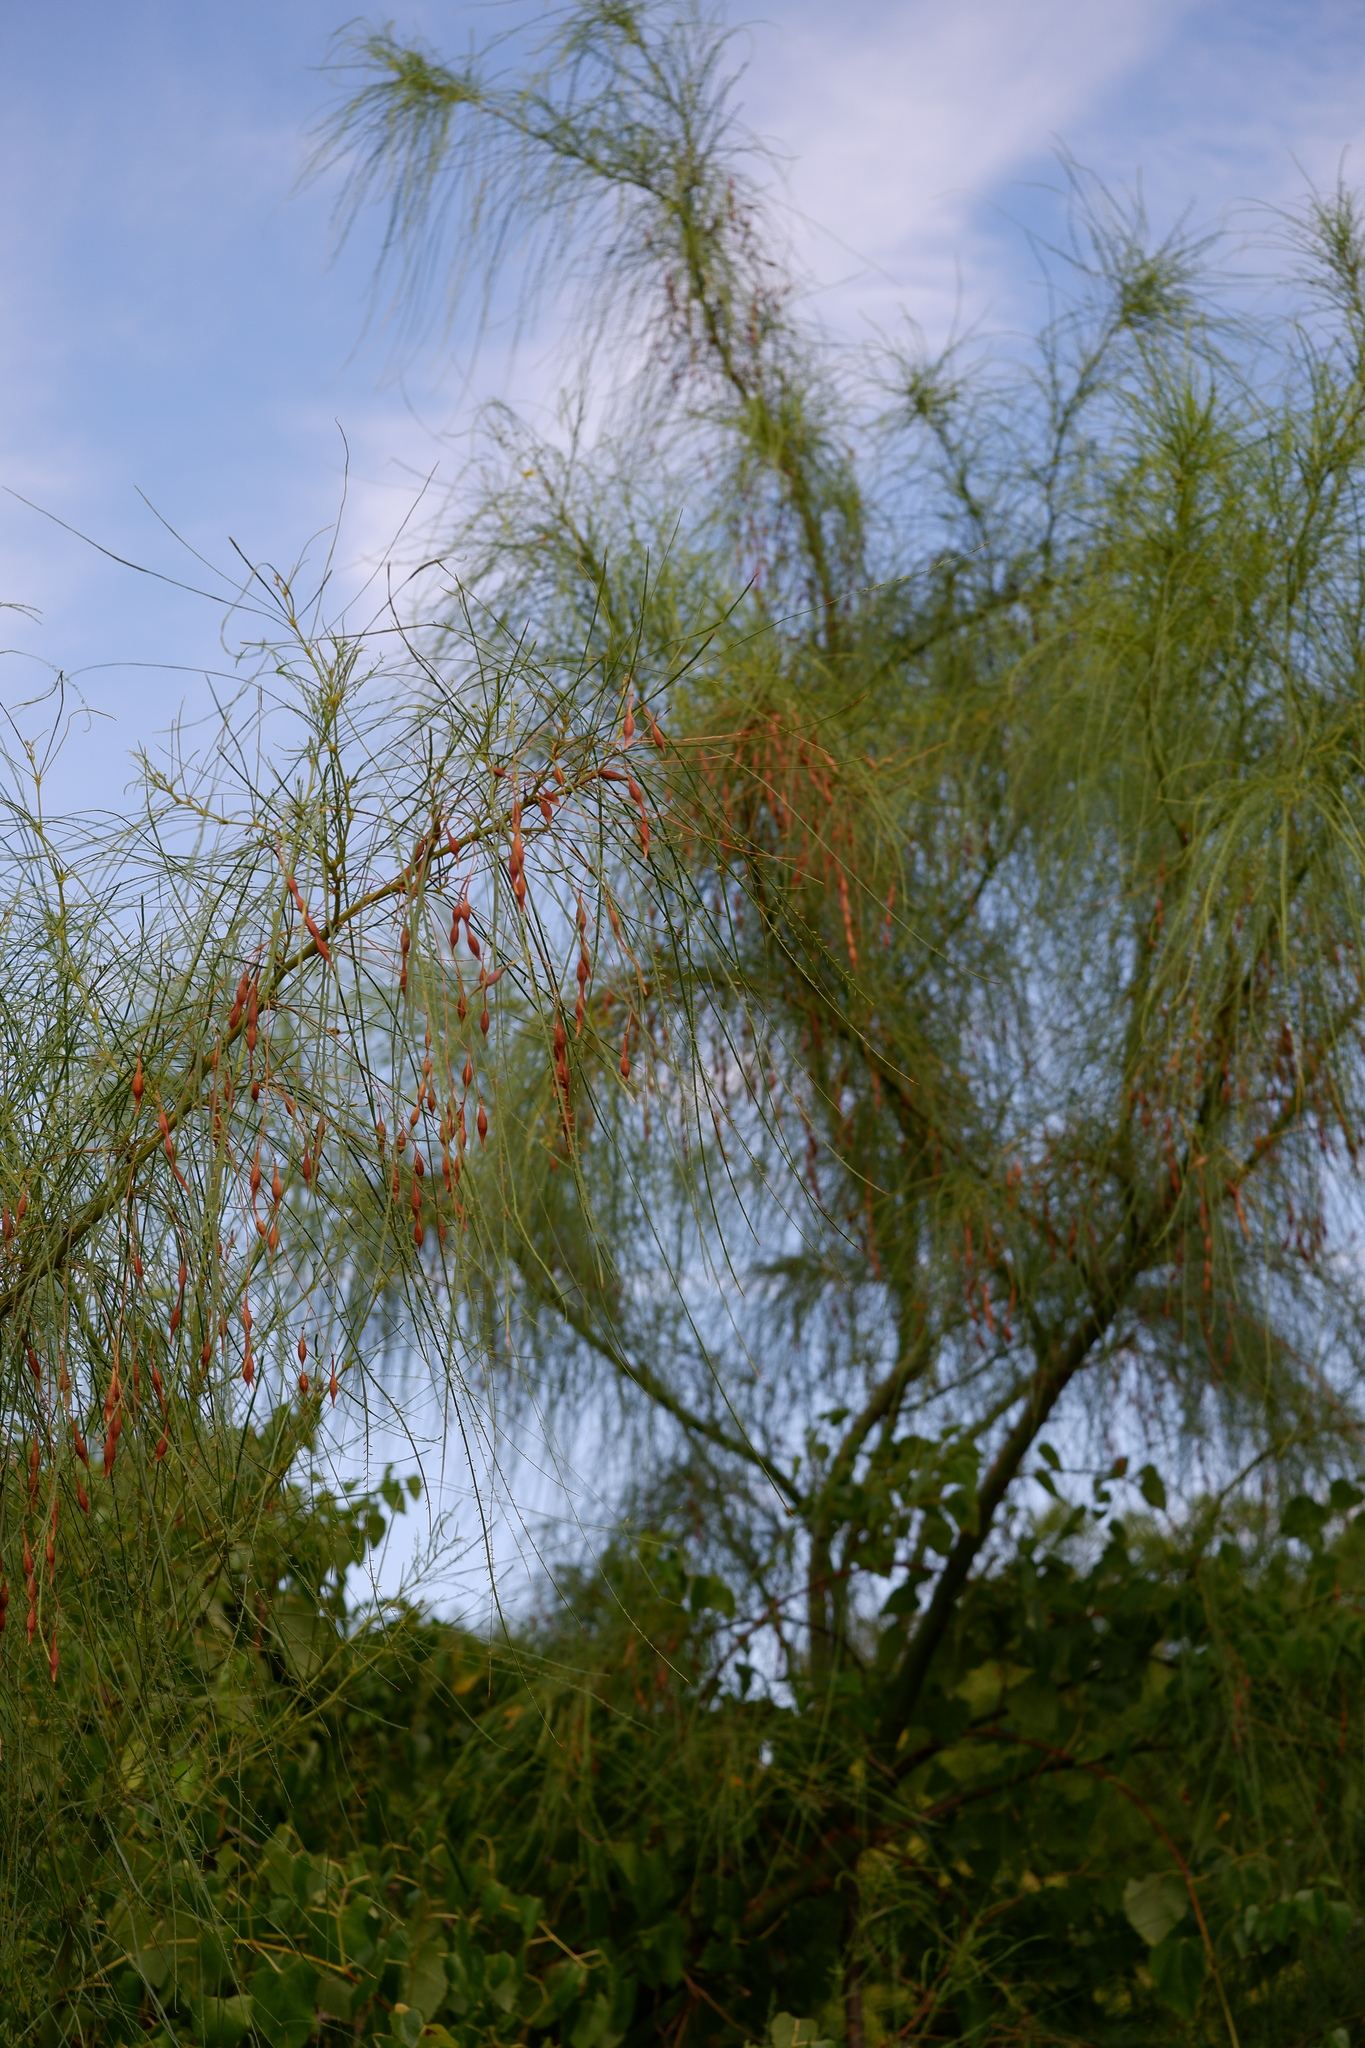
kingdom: Plantae
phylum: Tracheophyta
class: Magnoliopsida
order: Fabales
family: Fabaceae
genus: Parkinsonia
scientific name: Parkinsonia aculeata
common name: Jerusalem thorn
